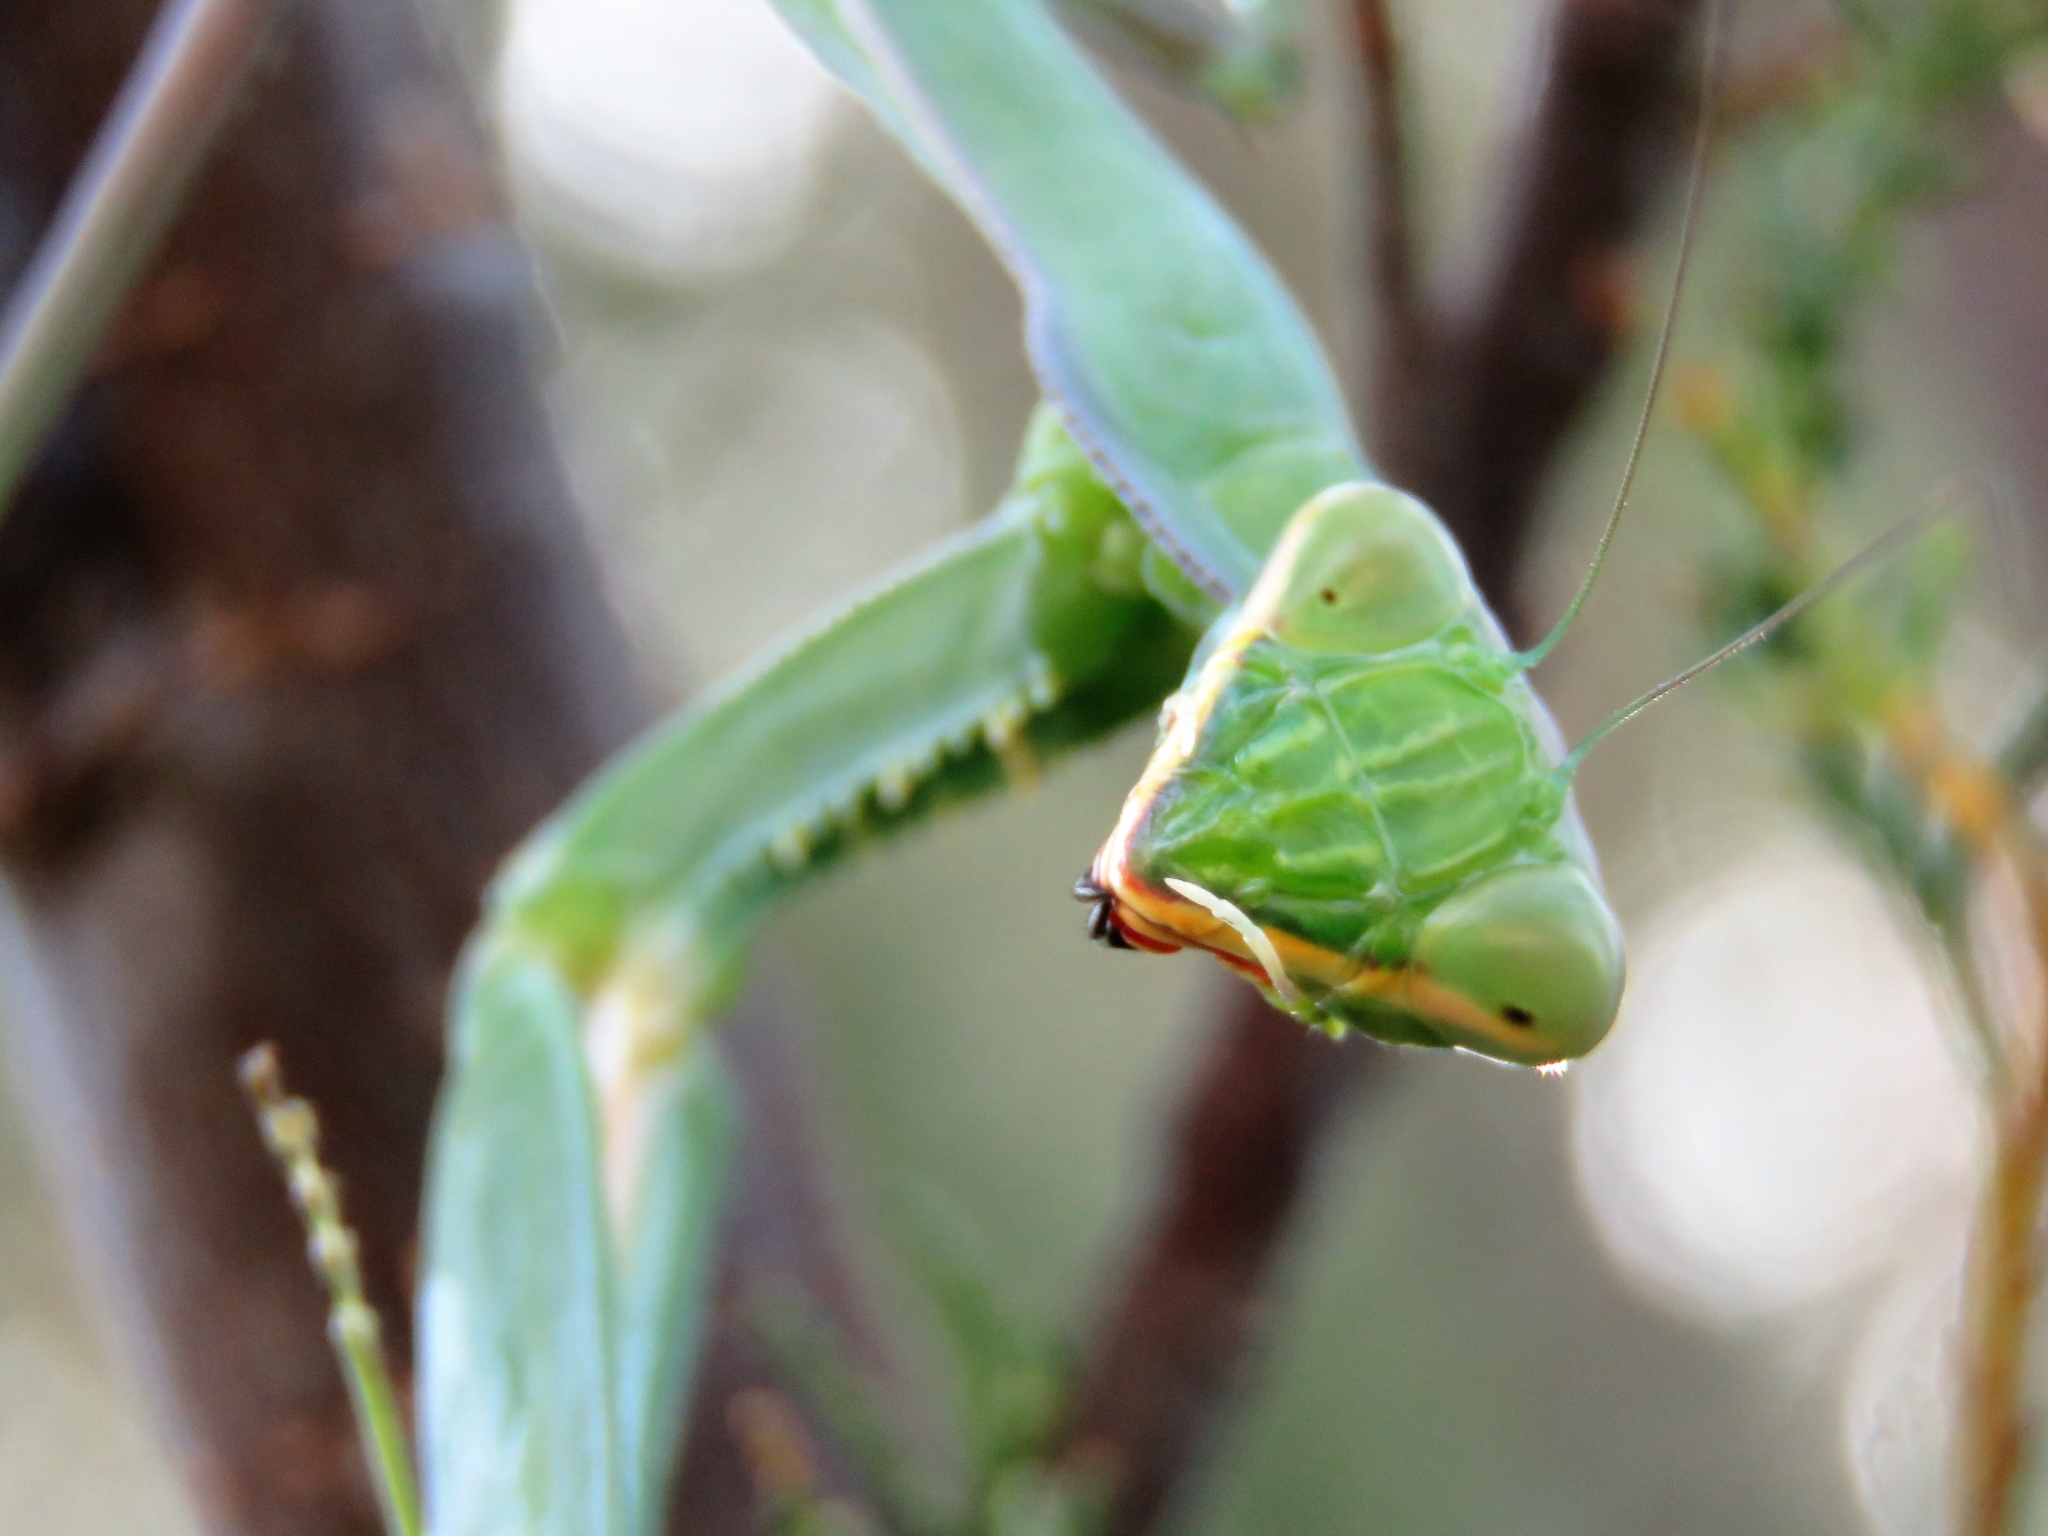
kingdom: Animalia
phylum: Arthropoda
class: Insecta
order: Mantodea
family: Mantidae
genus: Sphodromantis
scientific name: Sphodromantis viridis
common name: Giant african mantis
